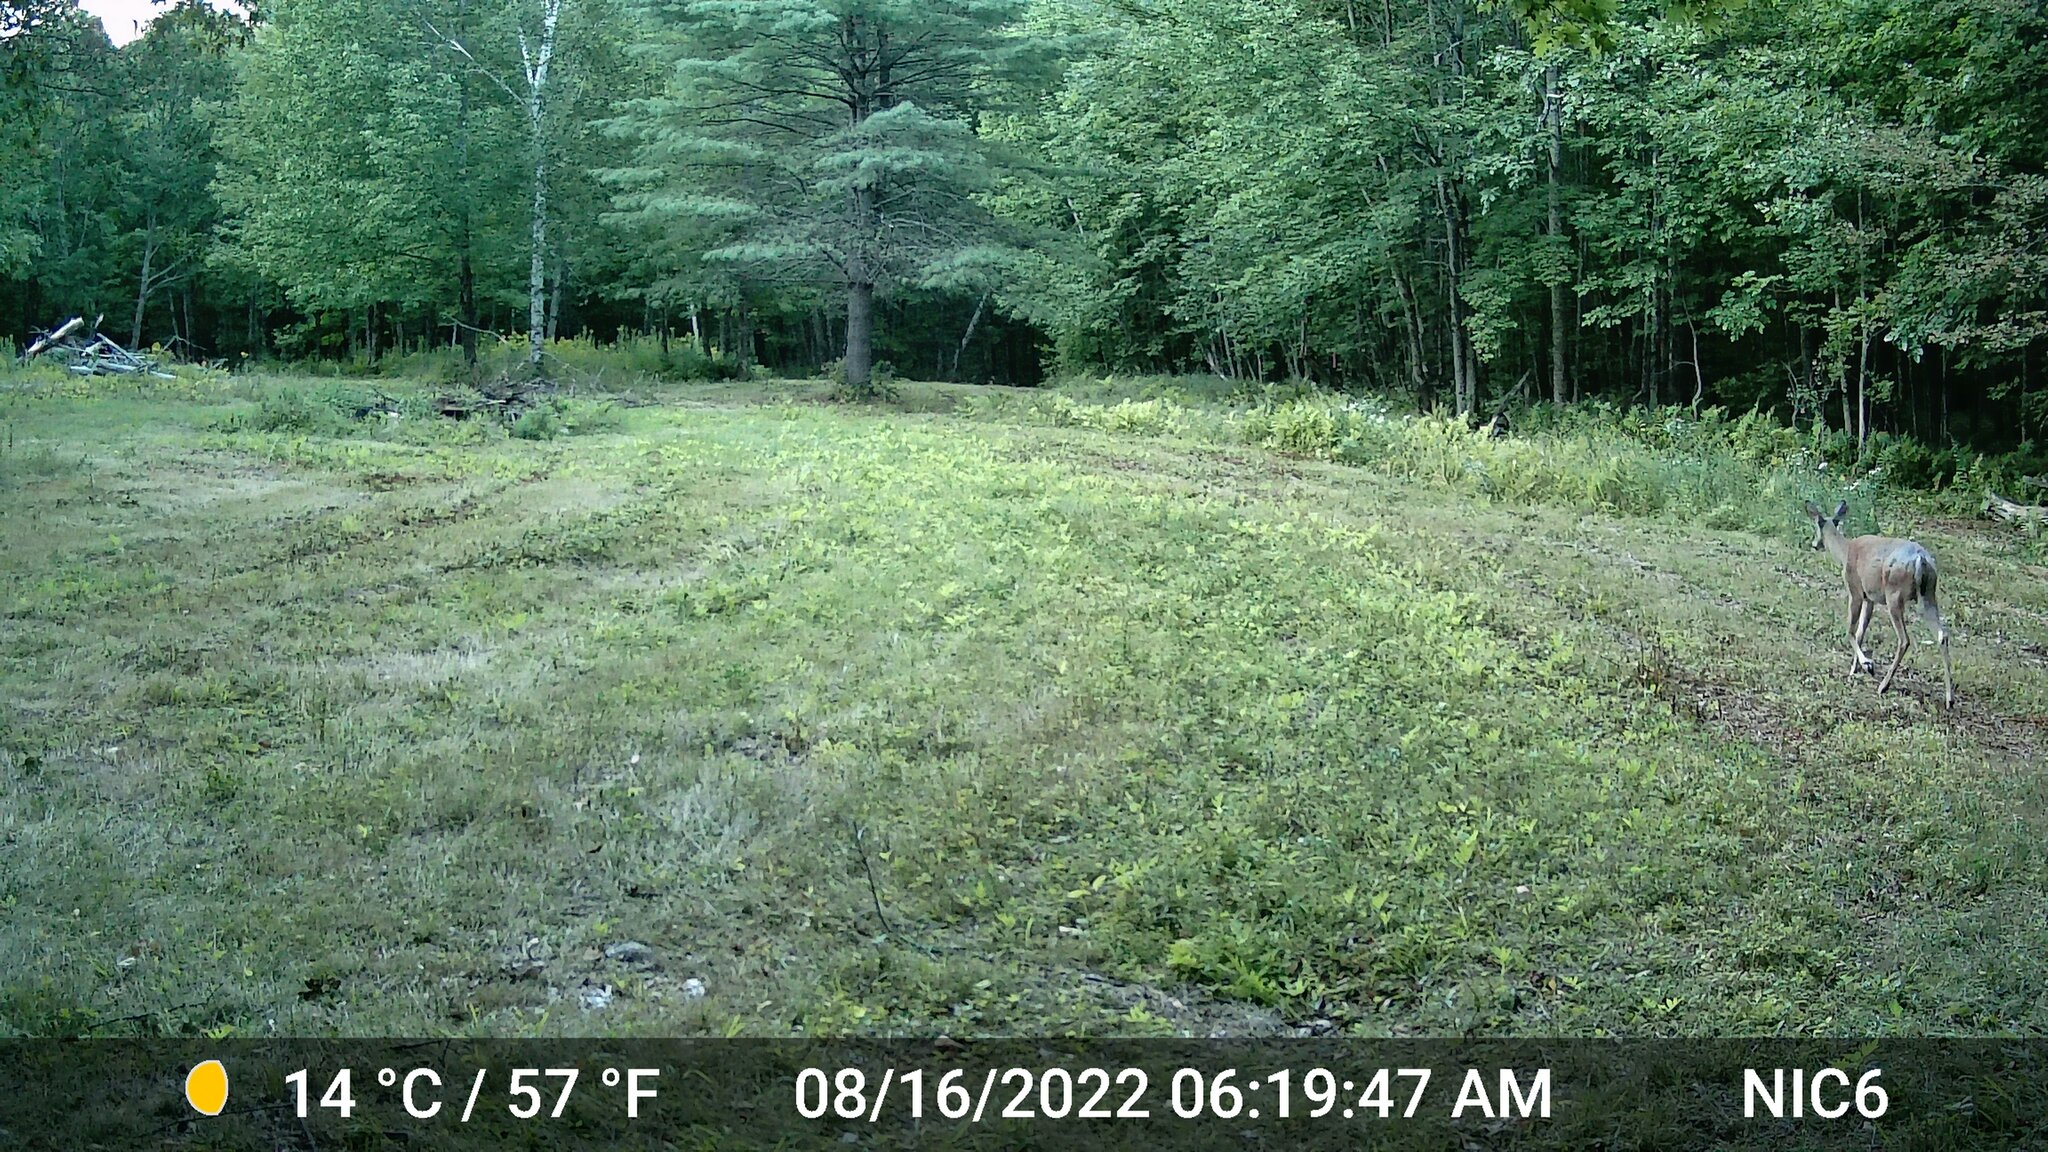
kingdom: Animalia
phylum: Chordata
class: Mammalia
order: Artiodactyla
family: Cervidae
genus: Odocoileus
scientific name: Odocoileus virginianus
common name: White-tailed deer
